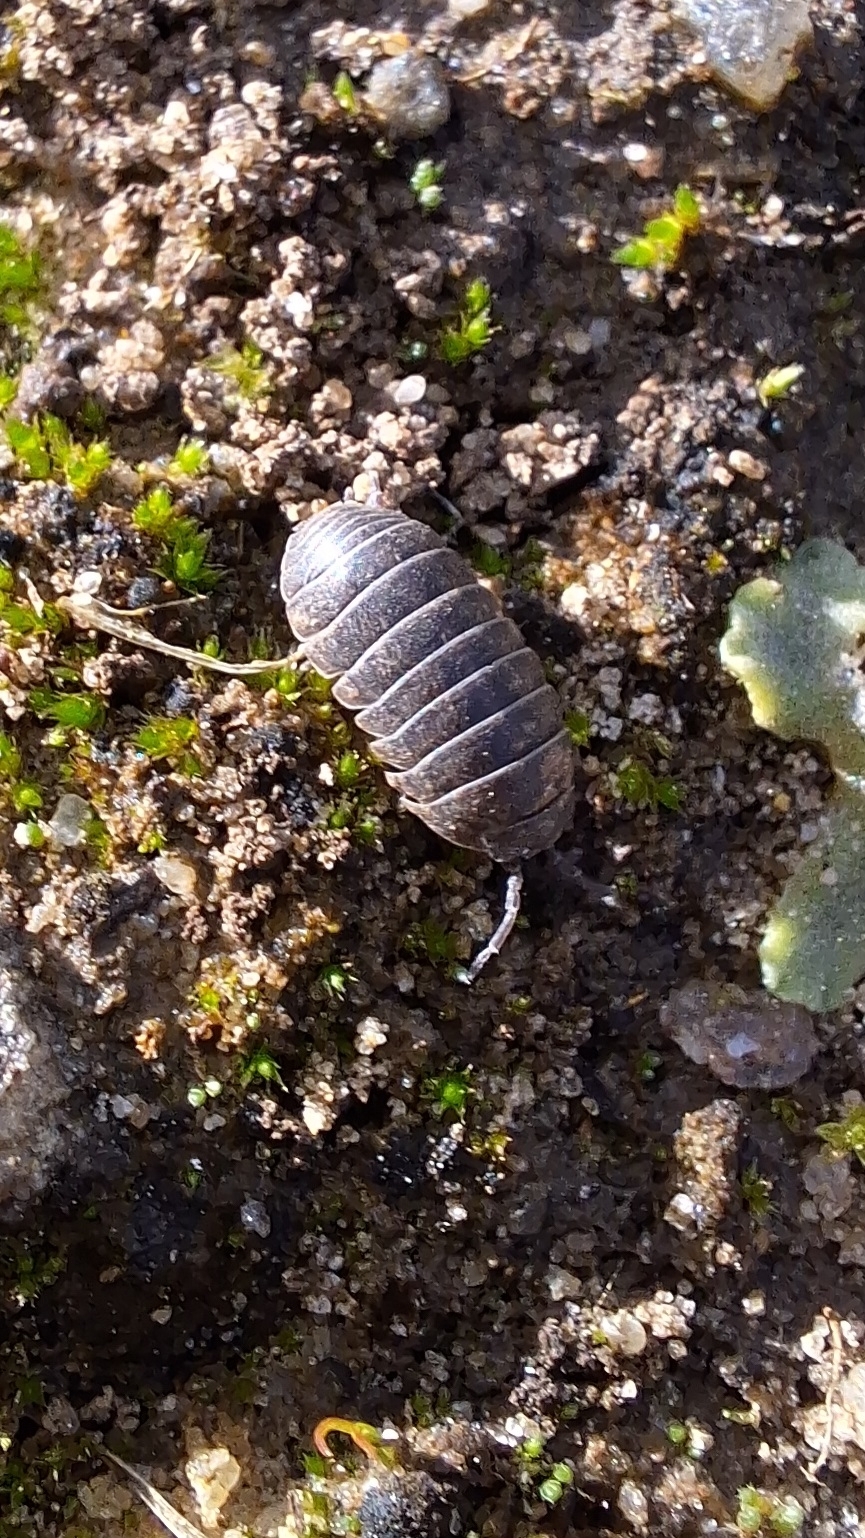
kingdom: Animalia
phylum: Arthropoda
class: Malacostraca
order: Isopoda
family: Armadillidiidae
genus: Armadillidium
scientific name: Armadillidium vulgare
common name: Common pill woodlouse
